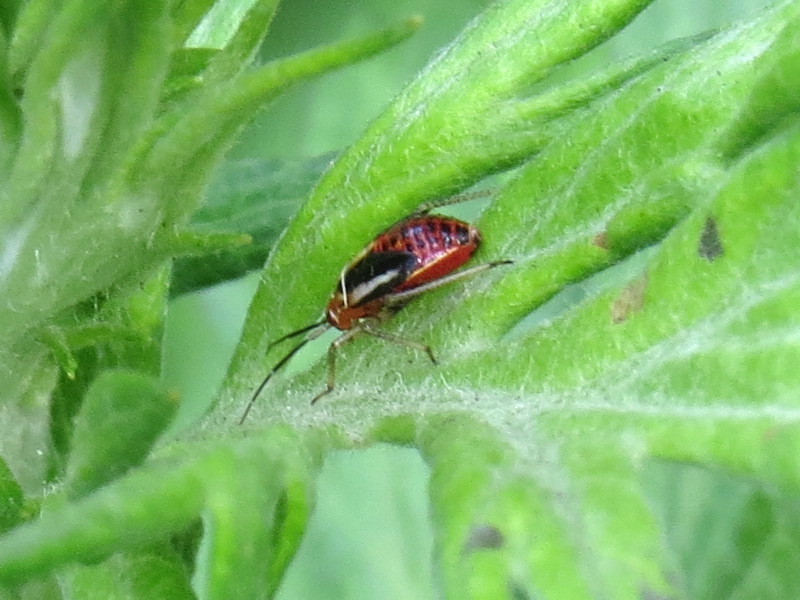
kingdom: Animalia
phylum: Arthropoda
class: Insecta
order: Hemiptera
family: Miridae
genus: Poecilocapsus
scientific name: Poecilocapsus lineatus
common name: Four-lined plant bug
